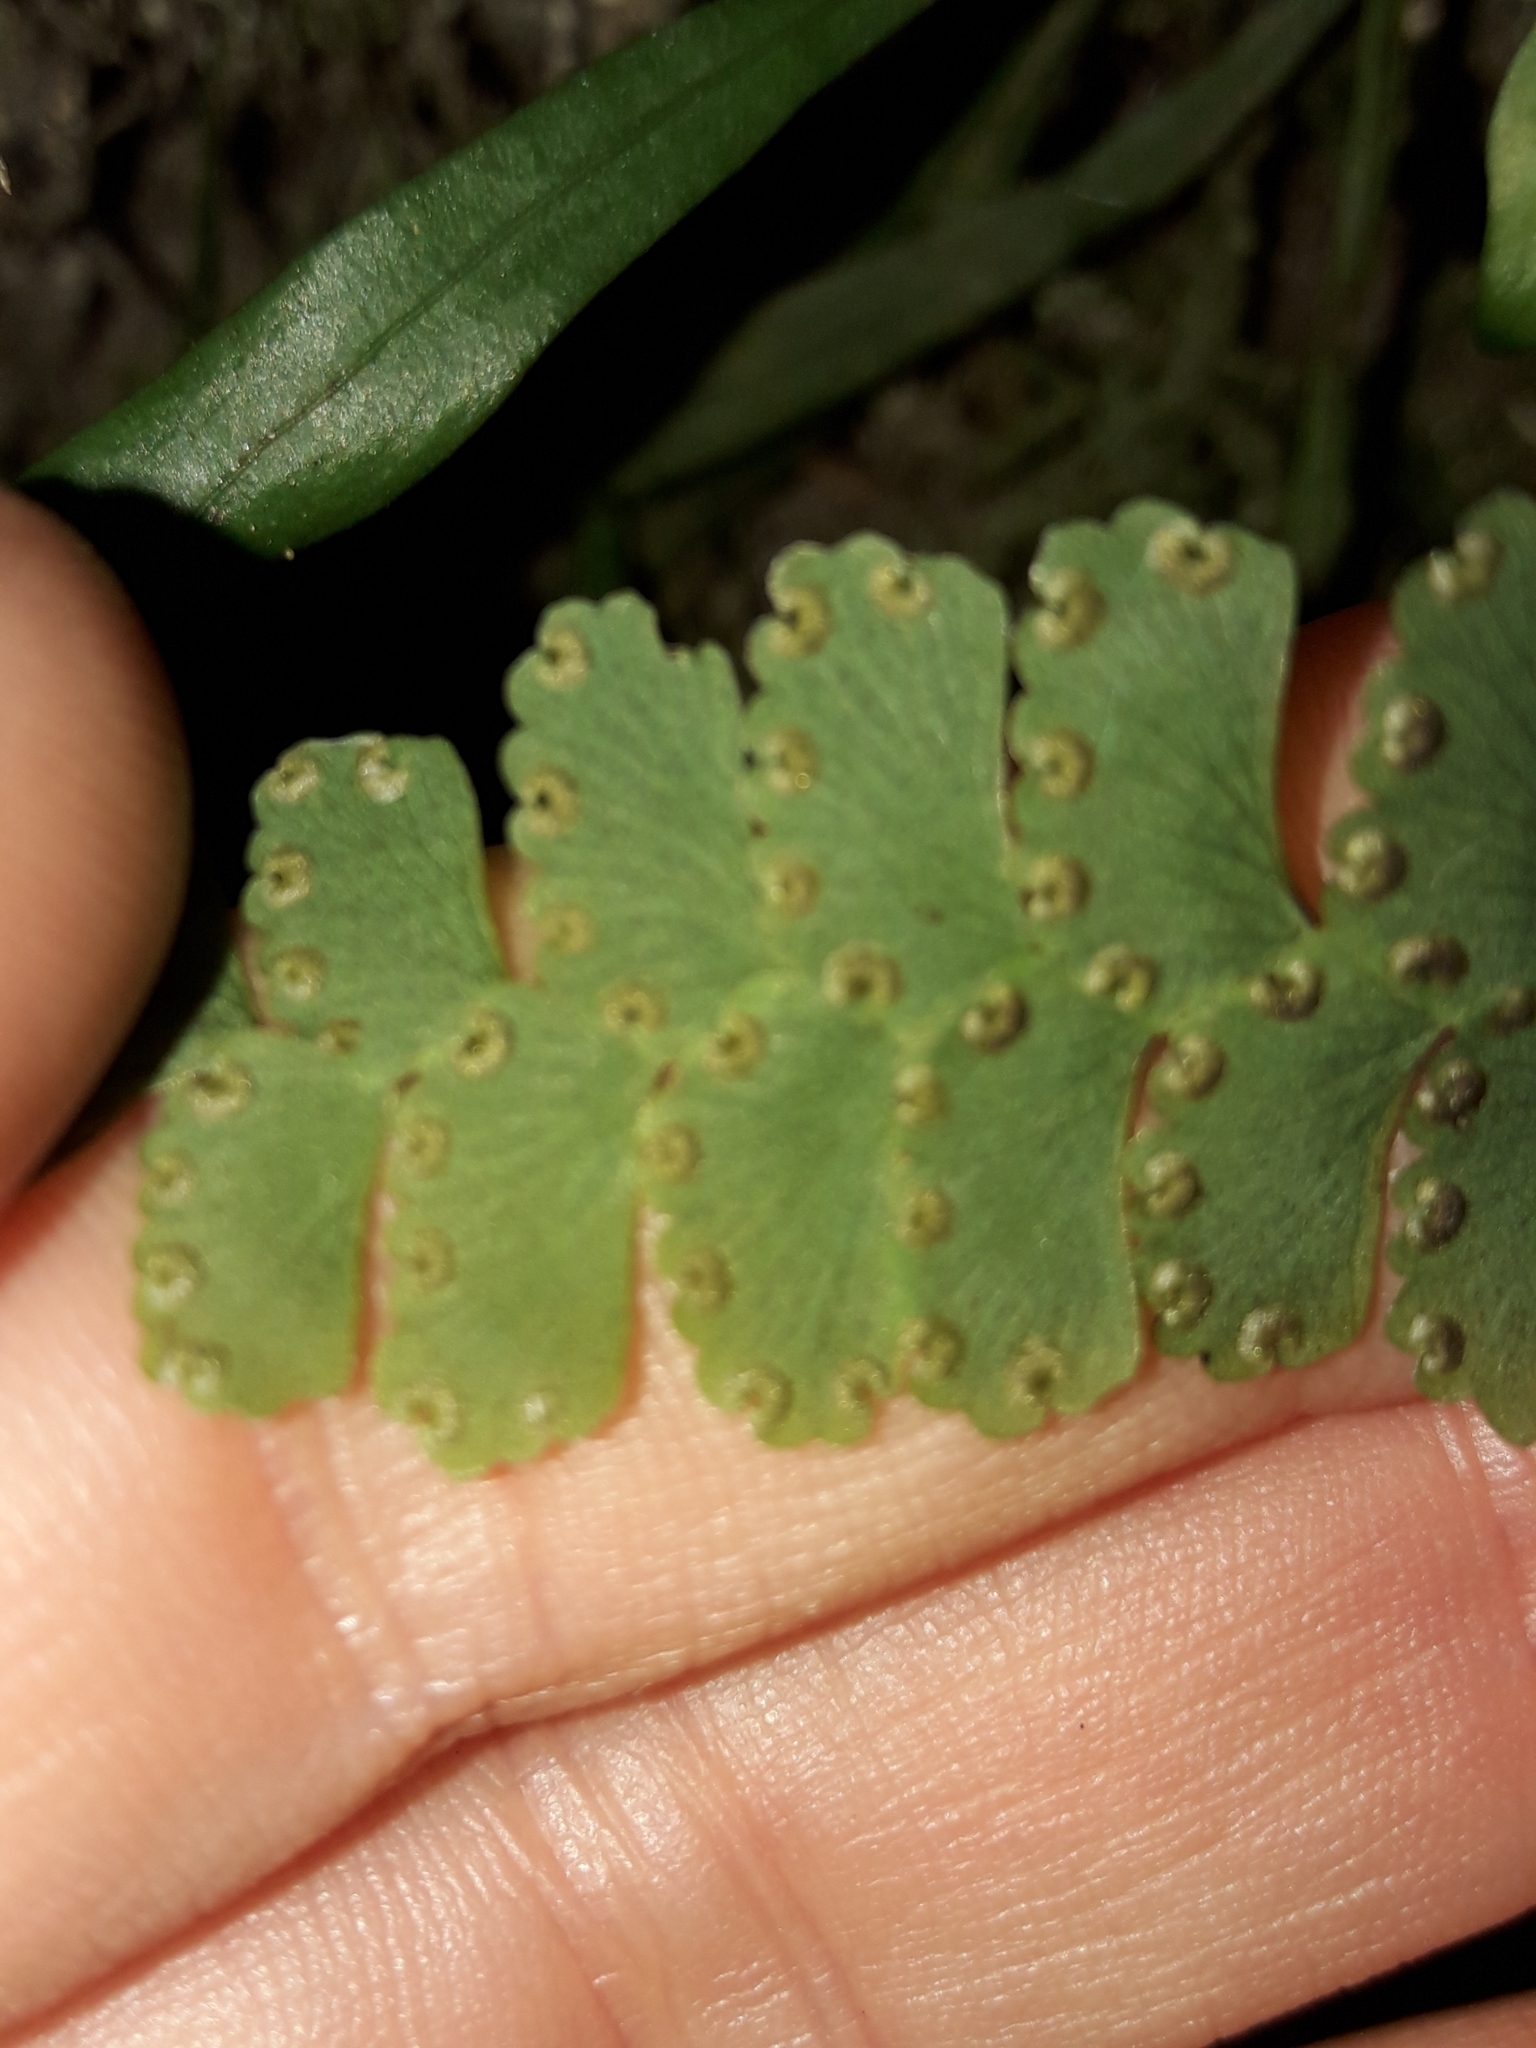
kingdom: Plantae
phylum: Tracheophyta
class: Polypodiopsida
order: Polypodiales
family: Pteridaceae
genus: Adiantum
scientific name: Adiantum diaphanum
